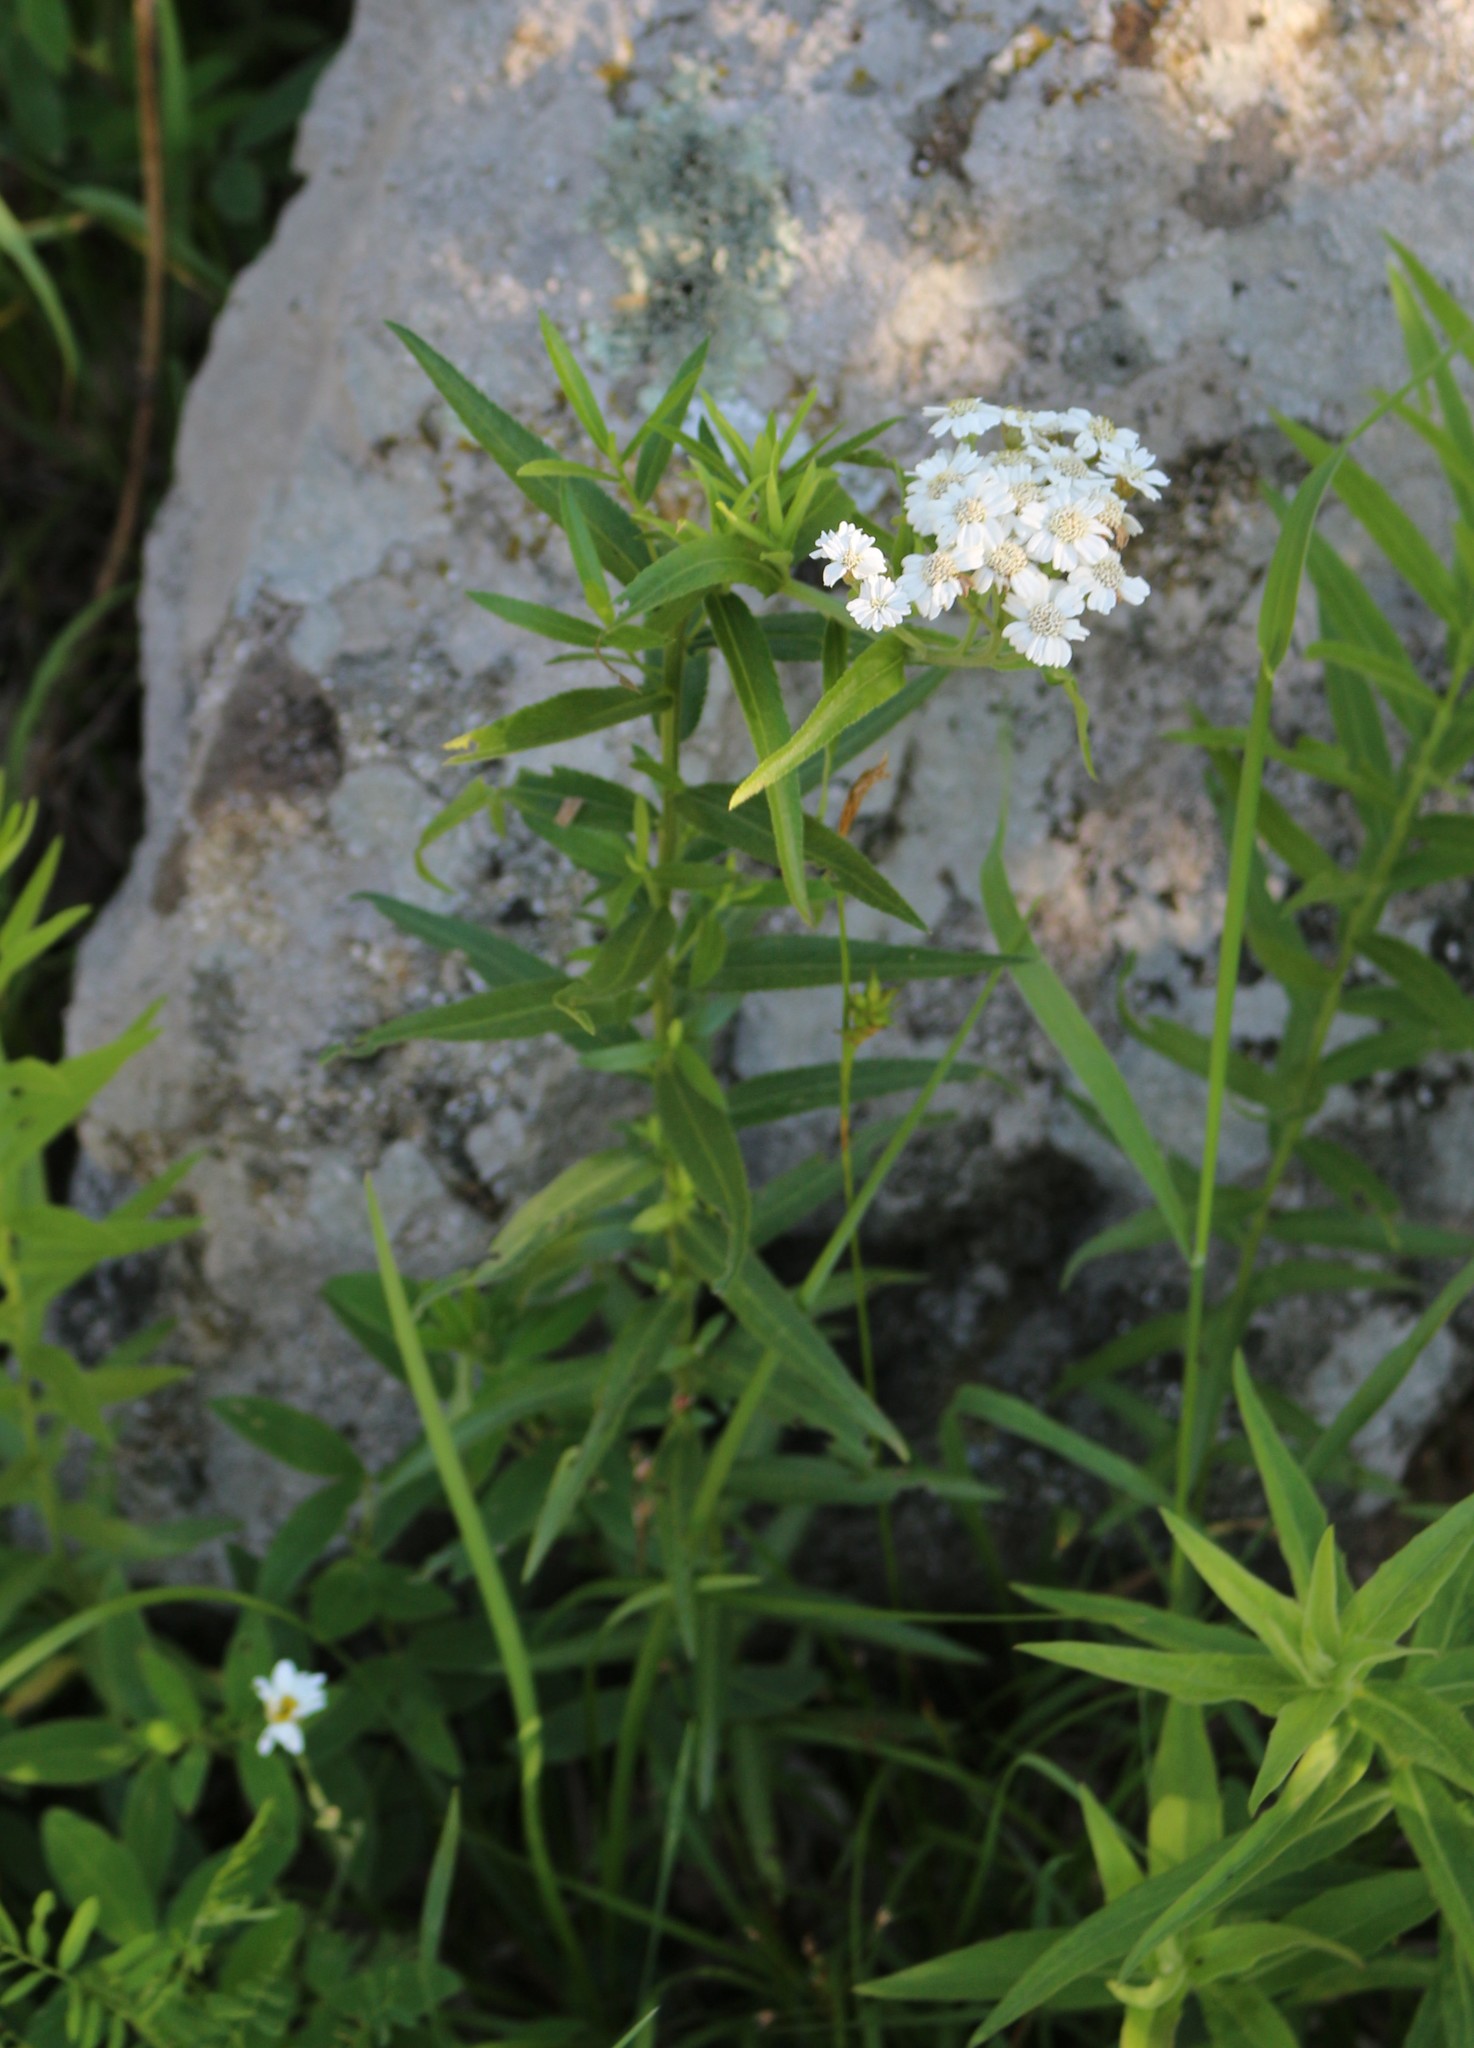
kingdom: Plantae
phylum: Tracheophyta
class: Magnoliopsida
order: Asterales
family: Asteraceae
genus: Achillea
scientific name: Achillea biserrata
